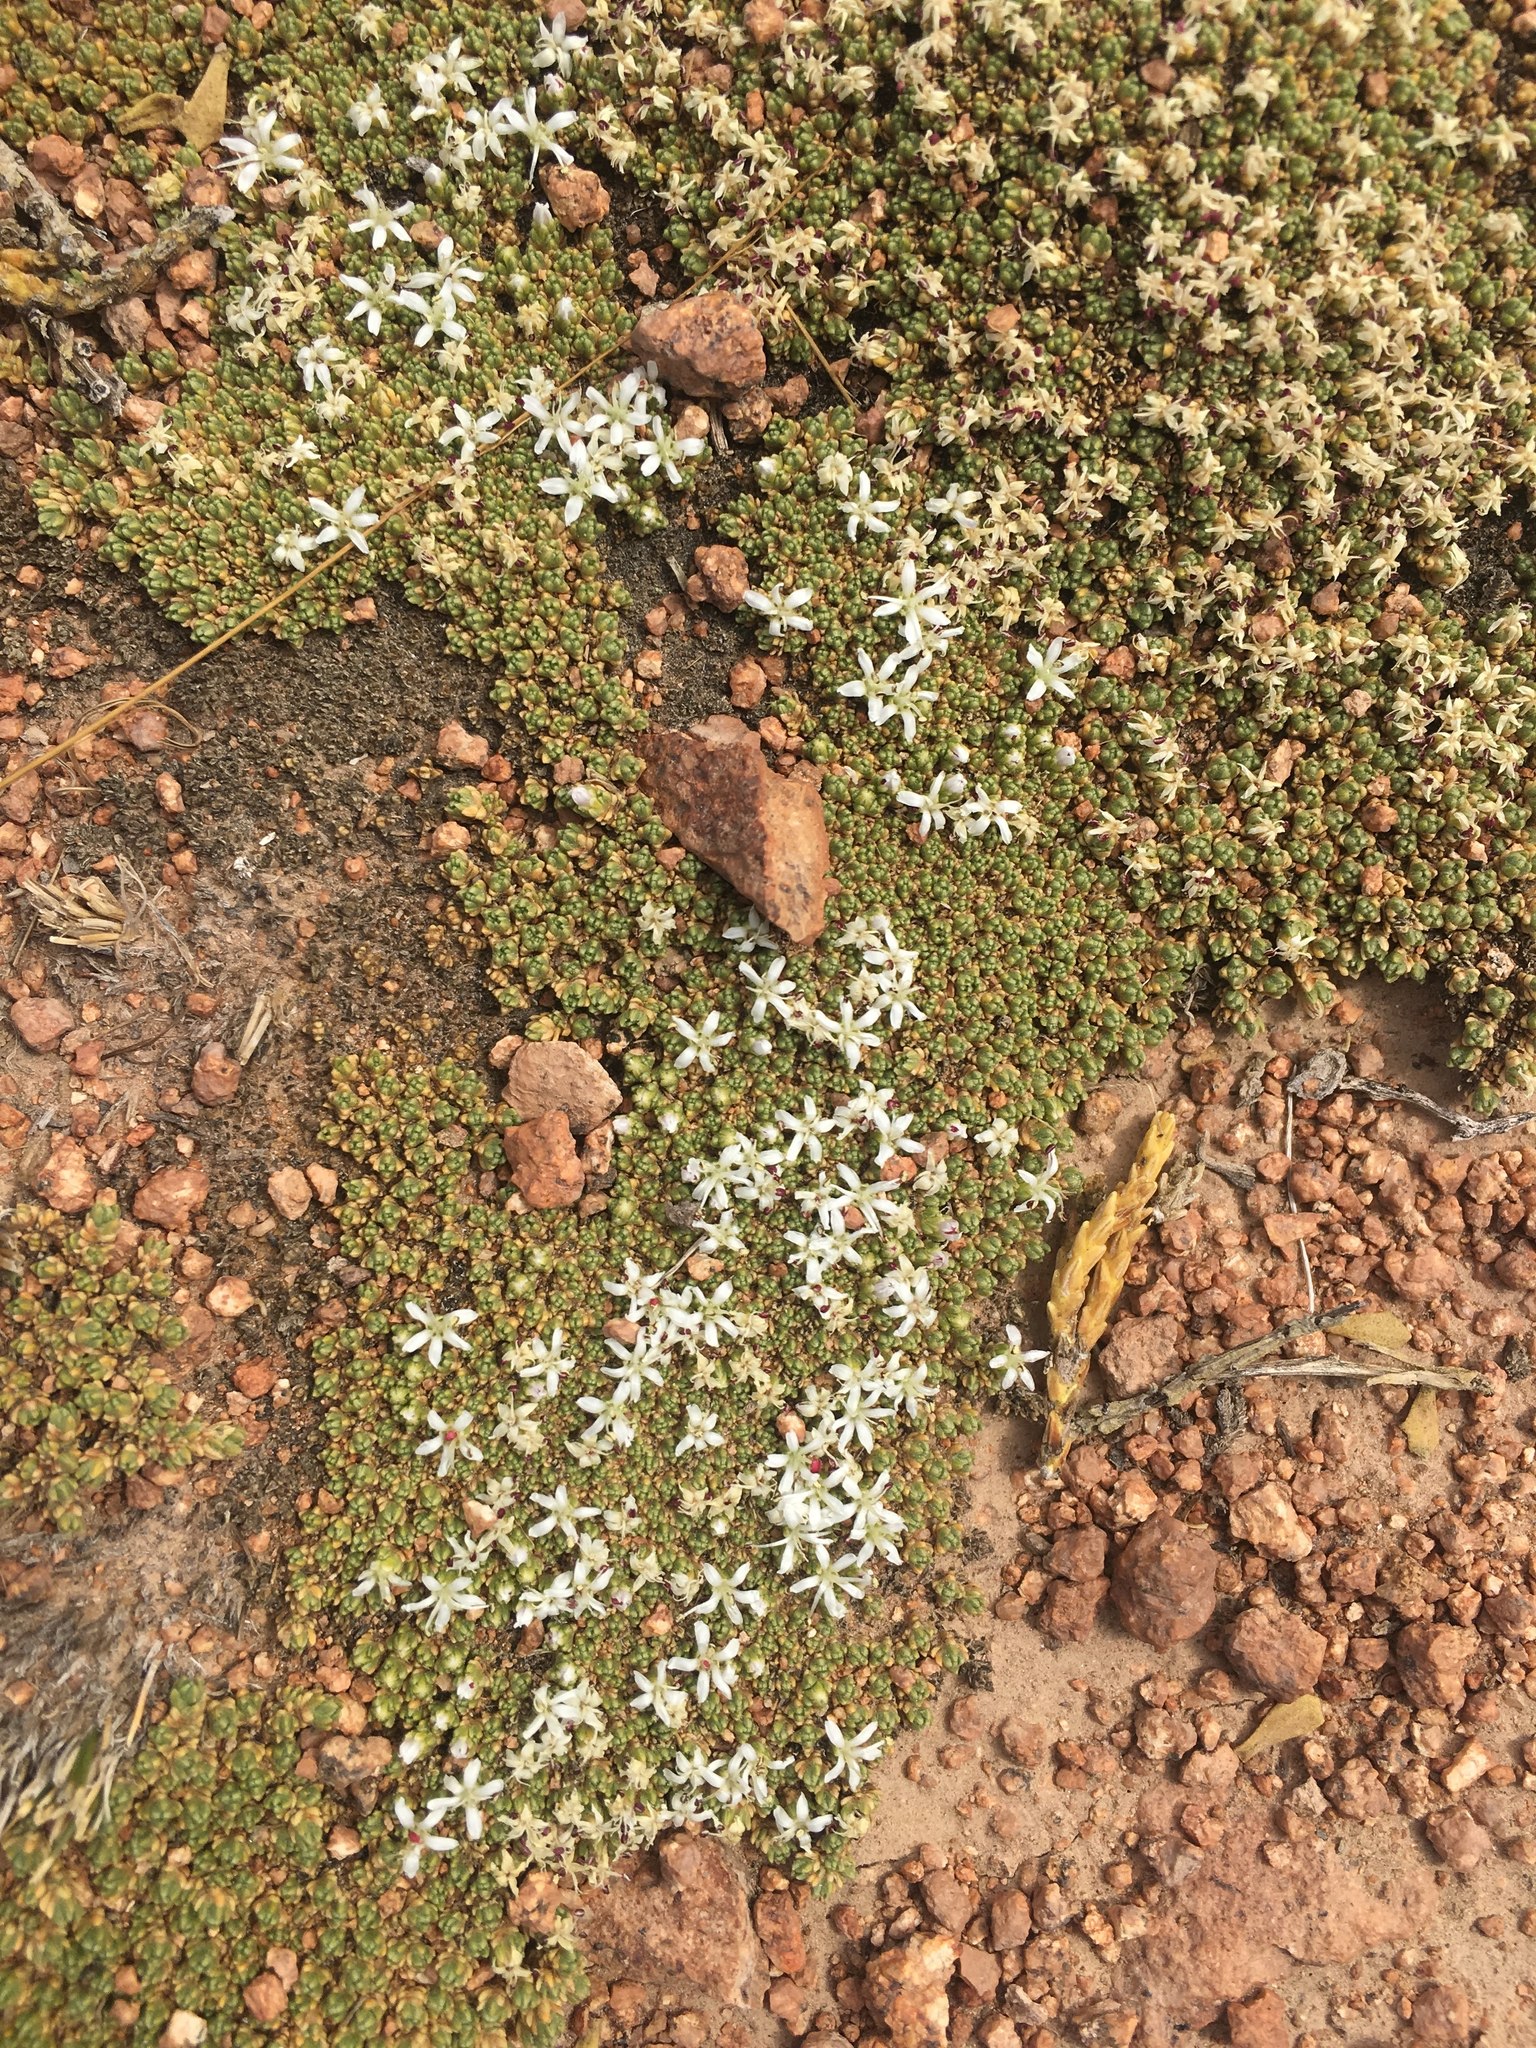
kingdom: Plantae
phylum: Tracheophyta
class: Magnoliopsida
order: Caryophyllales
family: Frankeniaceae
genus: Frankenia
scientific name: Frankenia triandra
